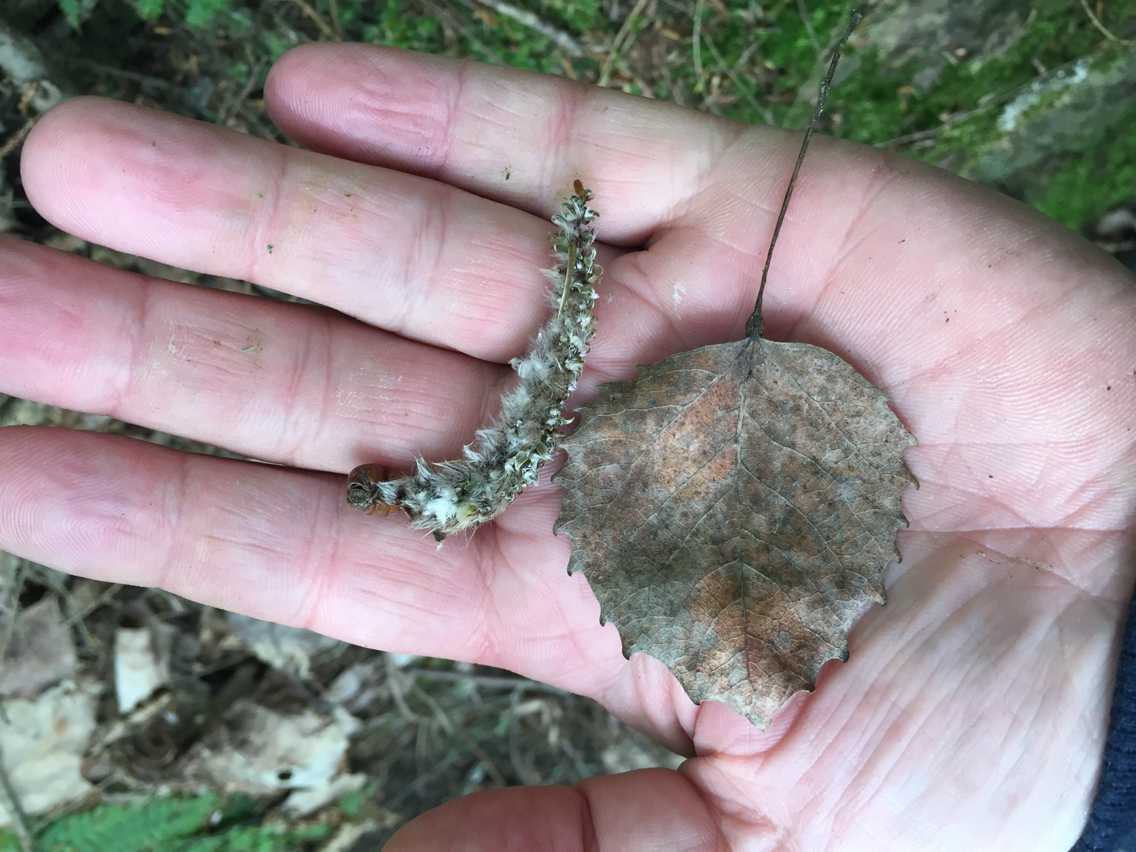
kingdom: Plantae
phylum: Tracheophyta
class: Magnoliopsida
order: Malpighiales
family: Salicaceae
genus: Populus
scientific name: Populus grandidentata
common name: Bigtooth aspen
